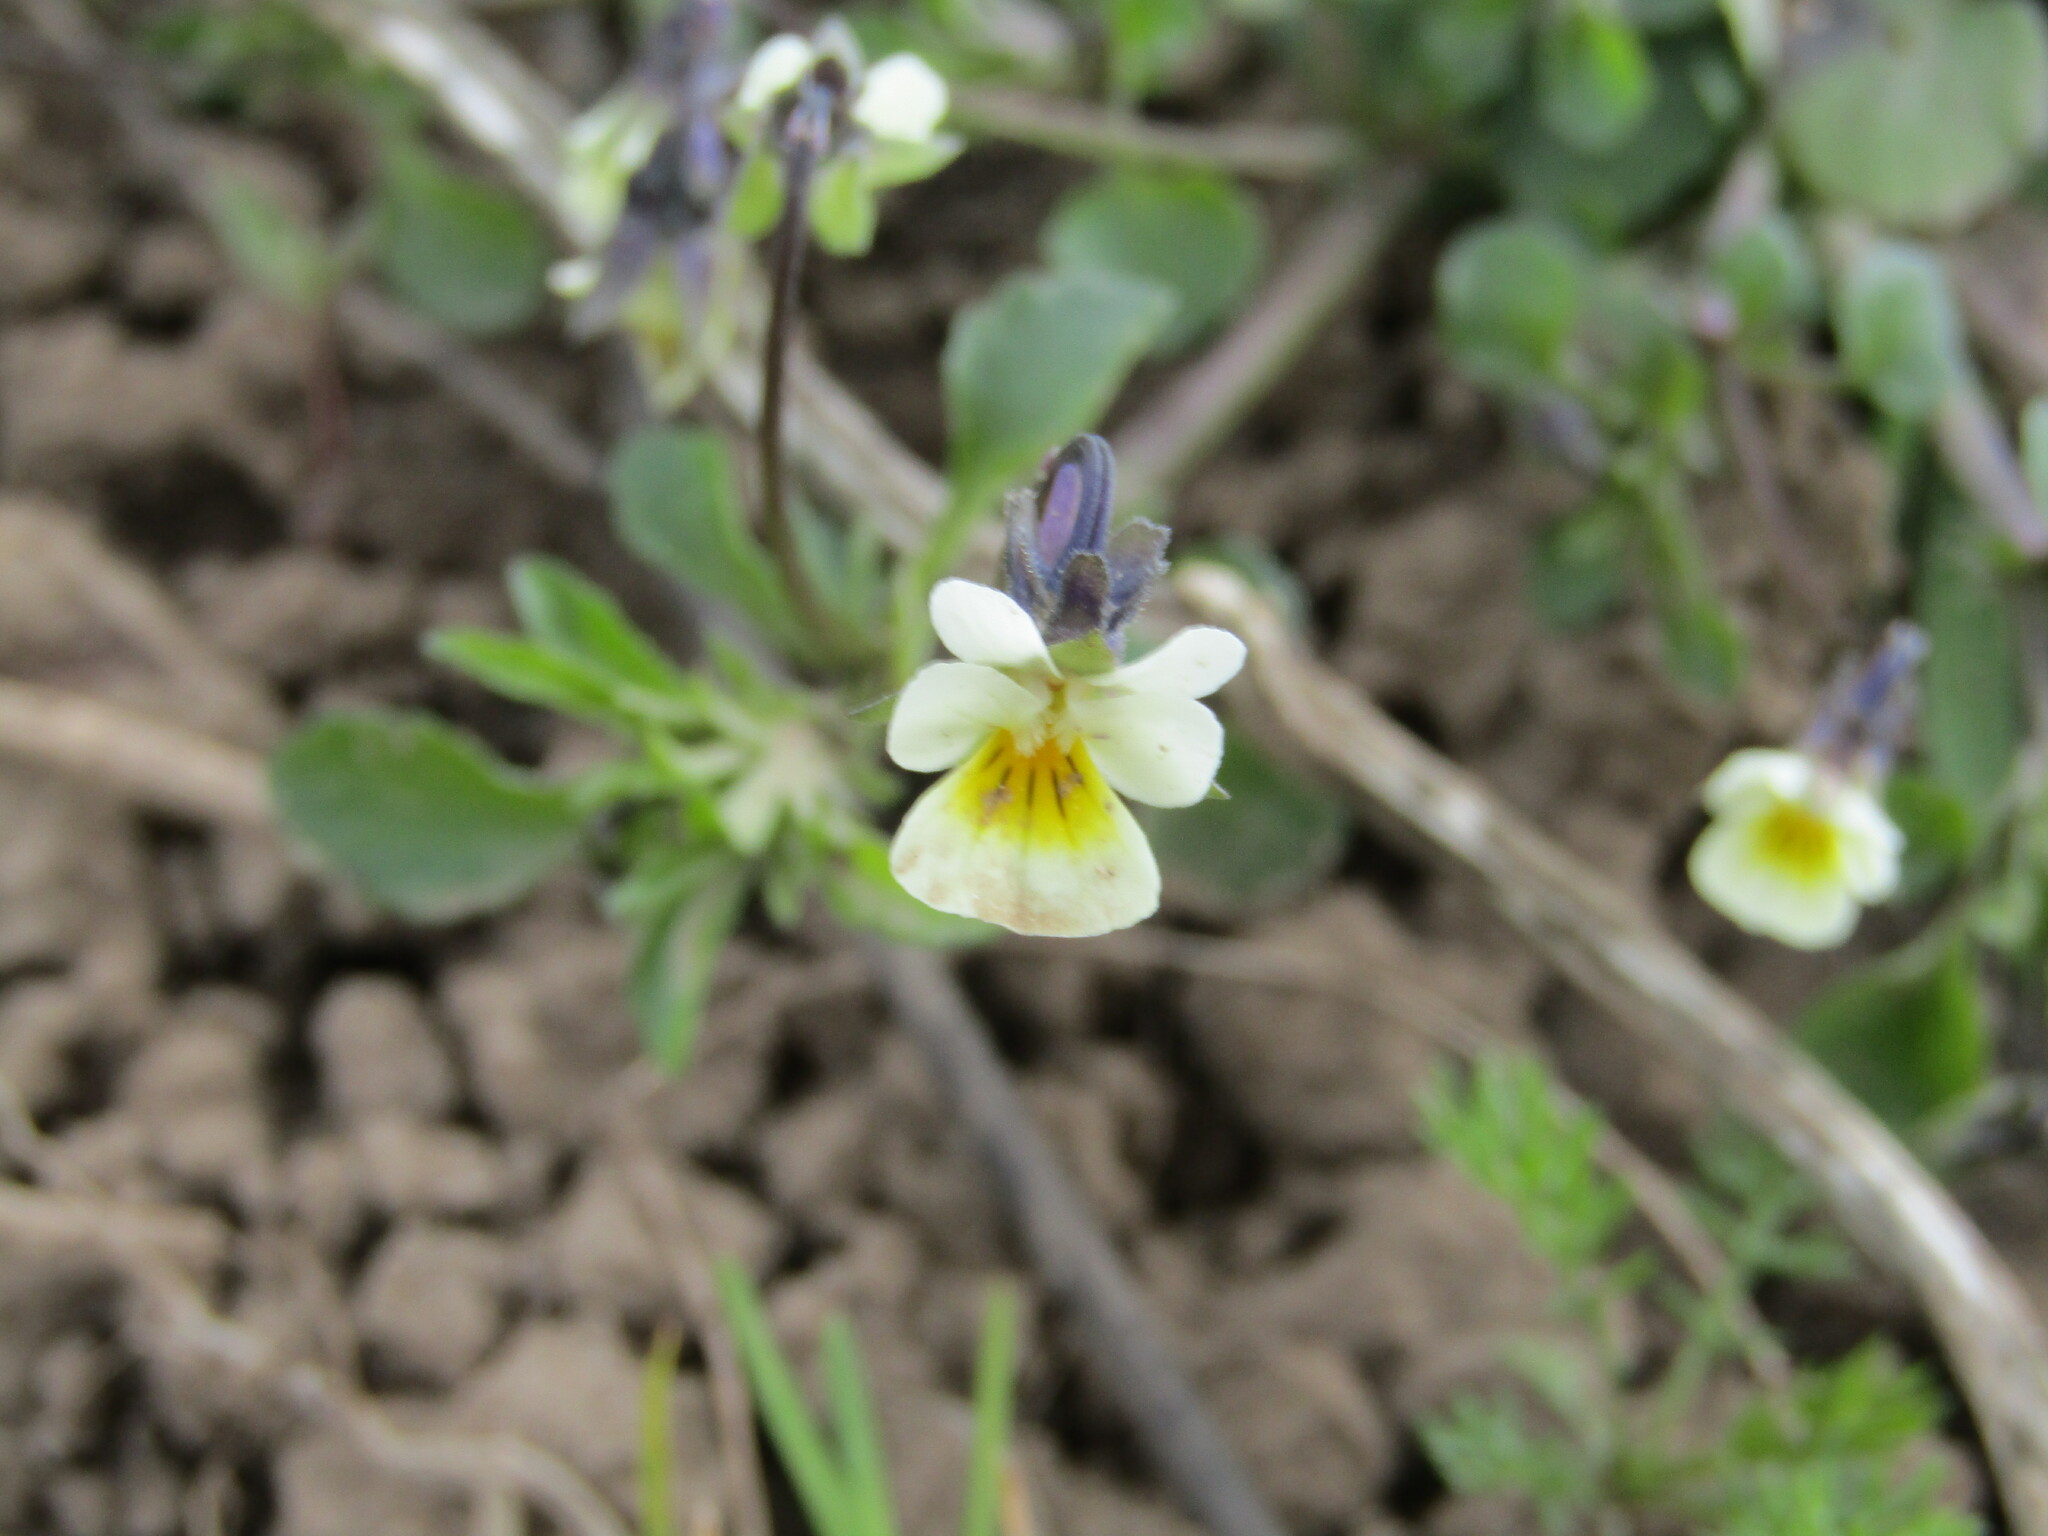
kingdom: Plantae
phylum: Tracheophyta
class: Magnoliopsida
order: Malpighiales
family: Violaceae
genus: Viola
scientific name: Viola arvensis
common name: Field pansy
